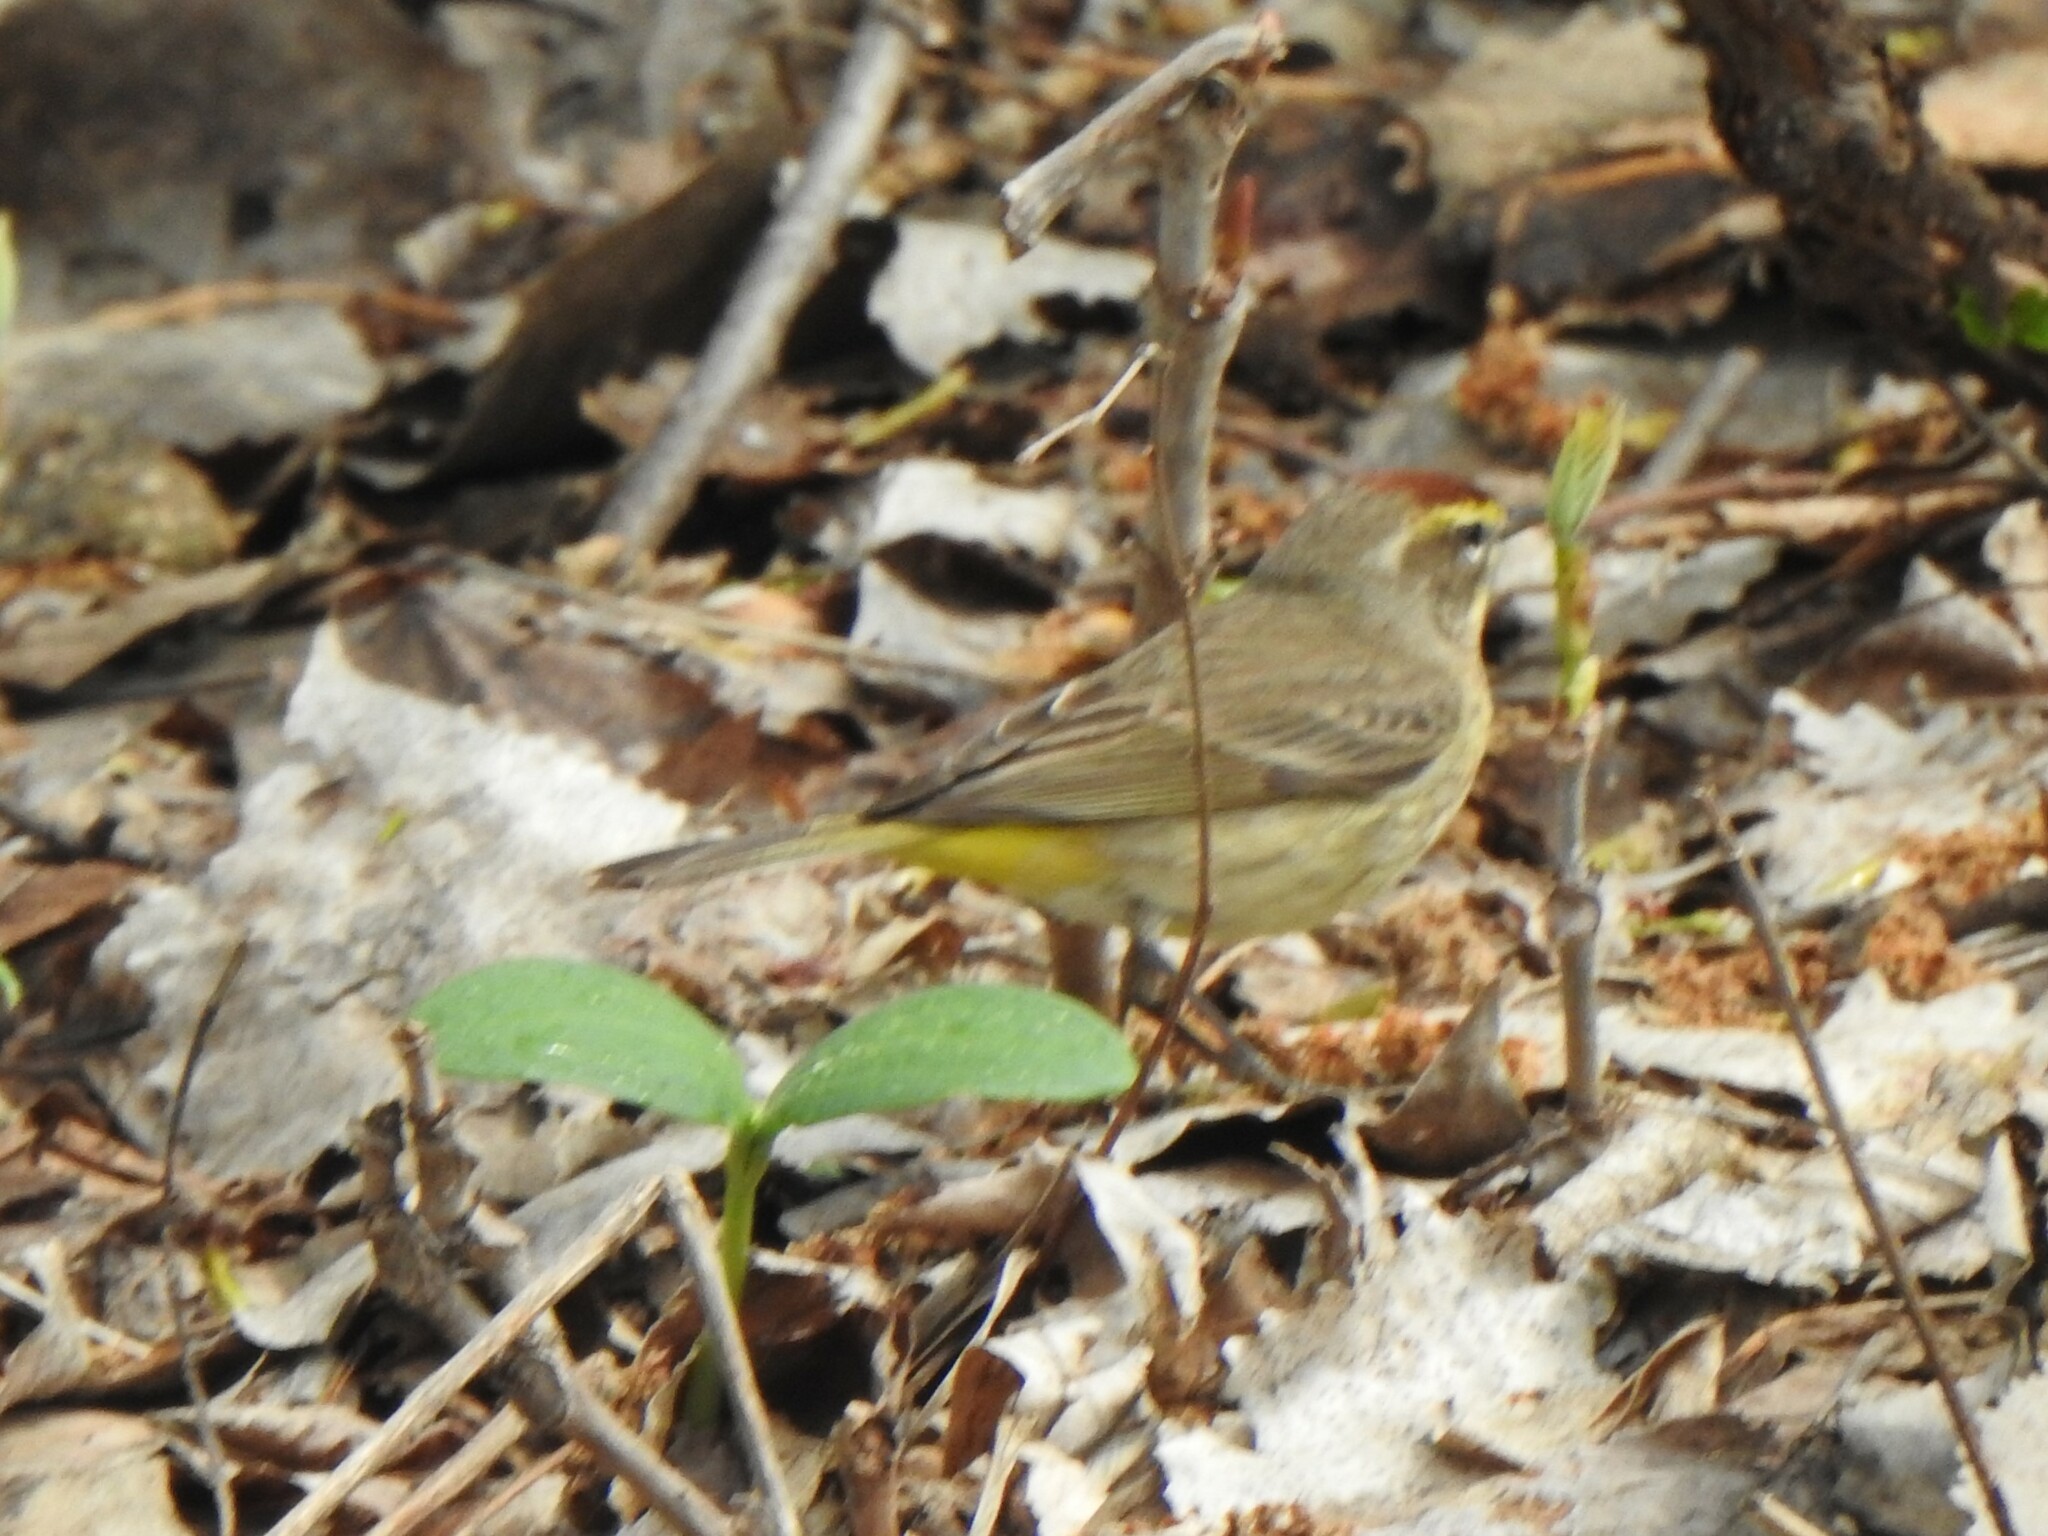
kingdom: Animalia
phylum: Chordata
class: Aves
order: Passeriformes
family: Parulidae
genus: Setophaga
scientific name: Setophaga palmarum
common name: Palm warbler
